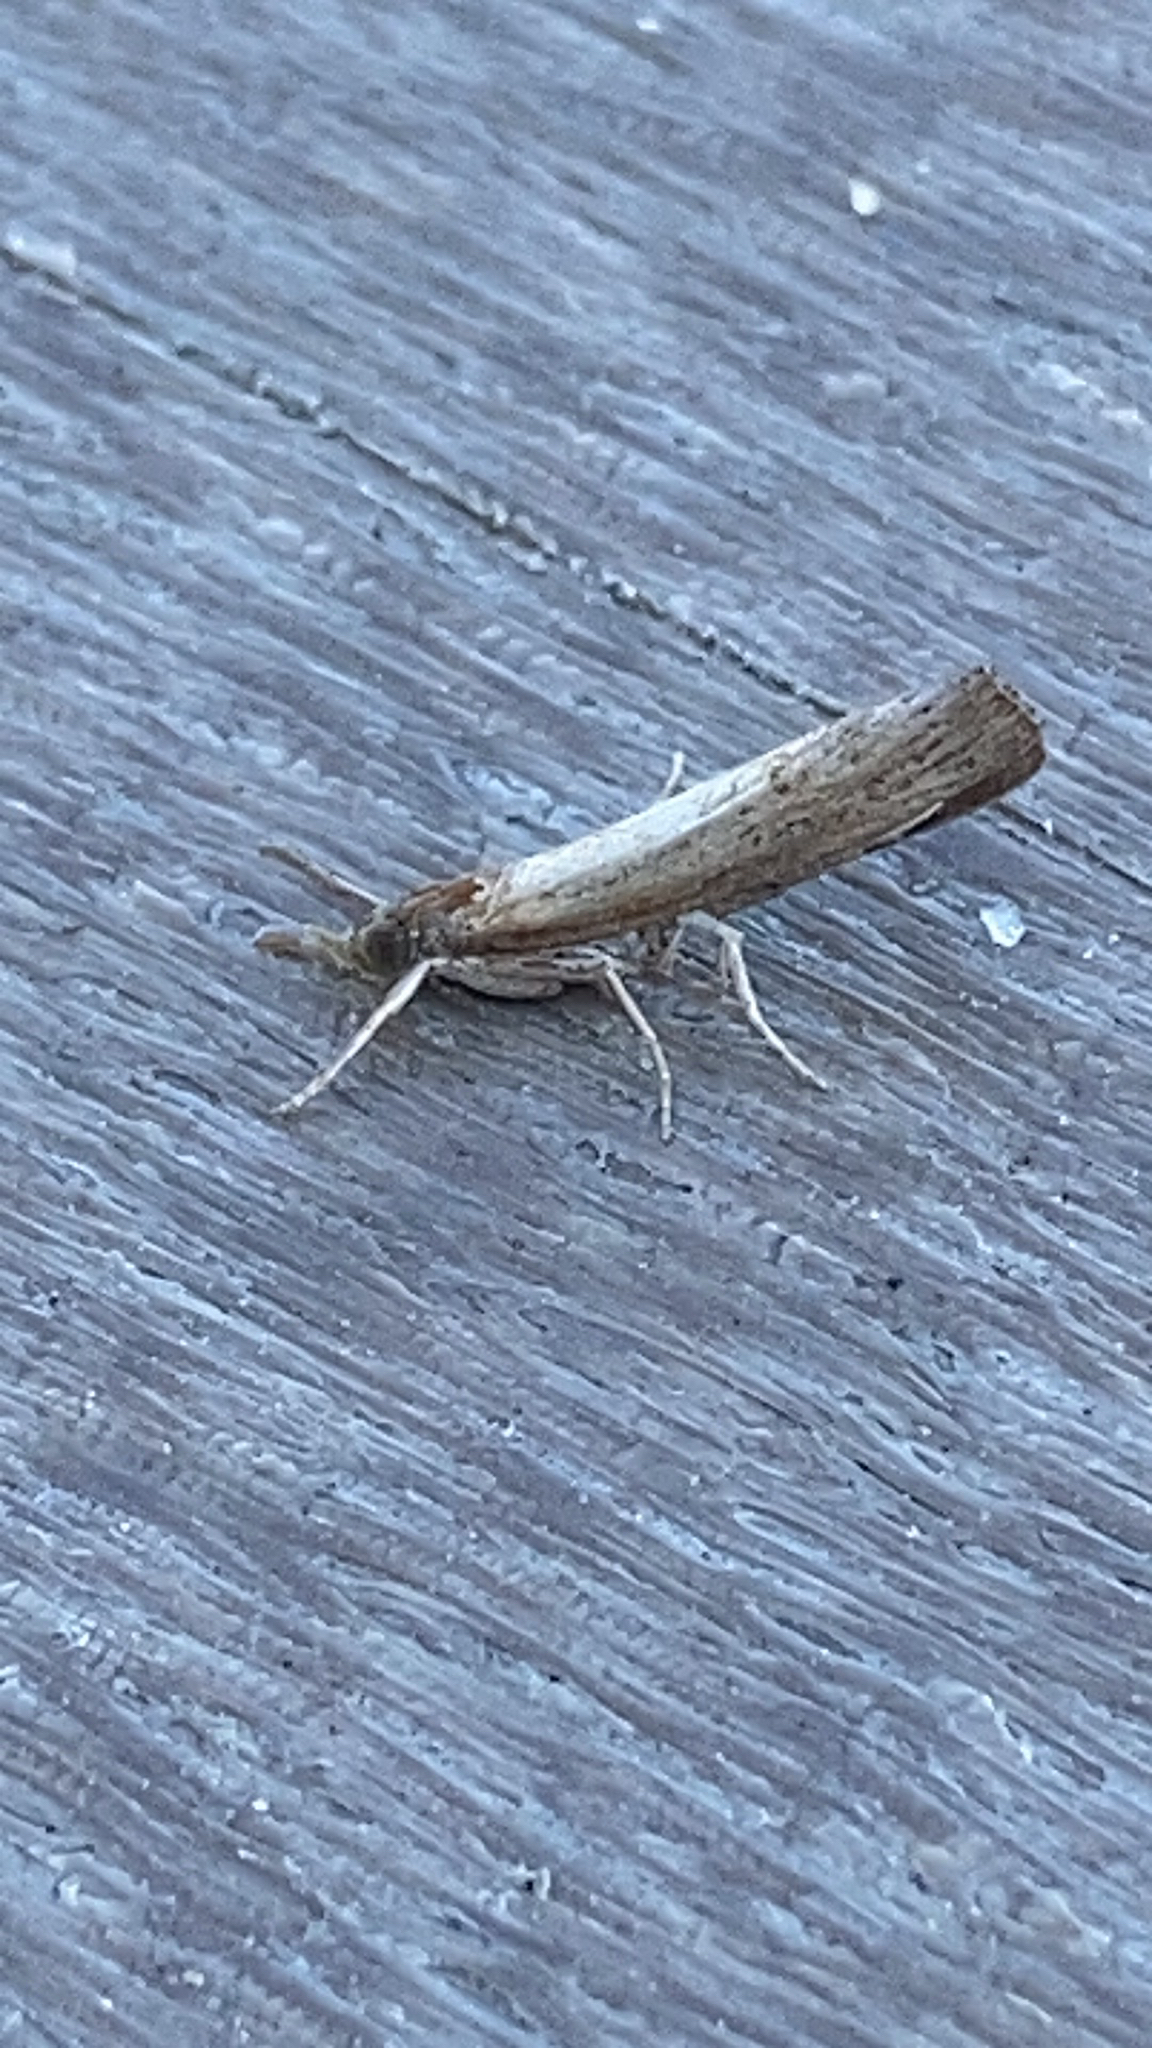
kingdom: Animalia
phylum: Arthropoda
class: Insecta
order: Lepidoptera
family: Crambidae
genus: Fissicrambus
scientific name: Fissicrambus mutabilis
